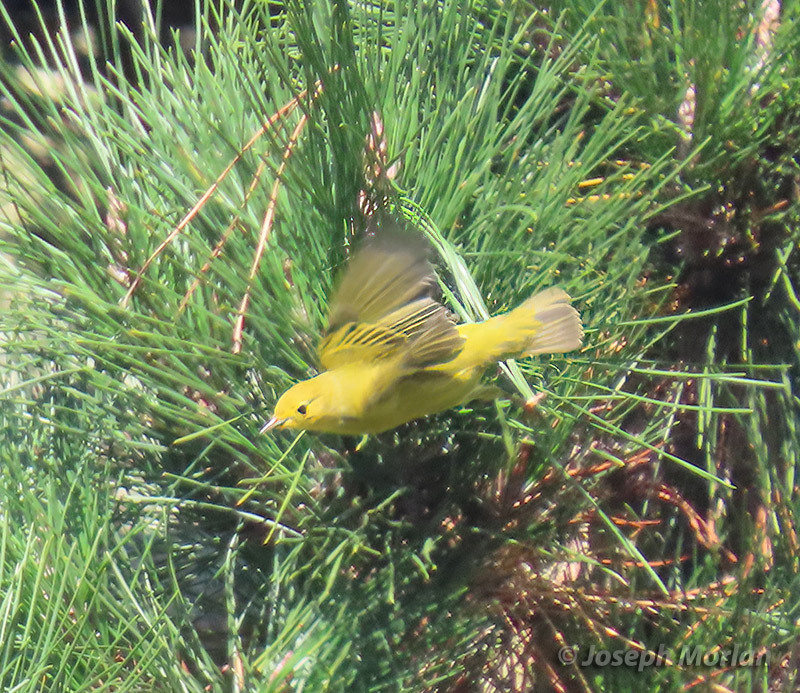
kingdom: Animalia
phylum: Chordata
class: Aves
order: Passeriformes
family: Parulidae
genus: Setophaga
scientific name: Setophaga petechia
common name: Yellow warbler
